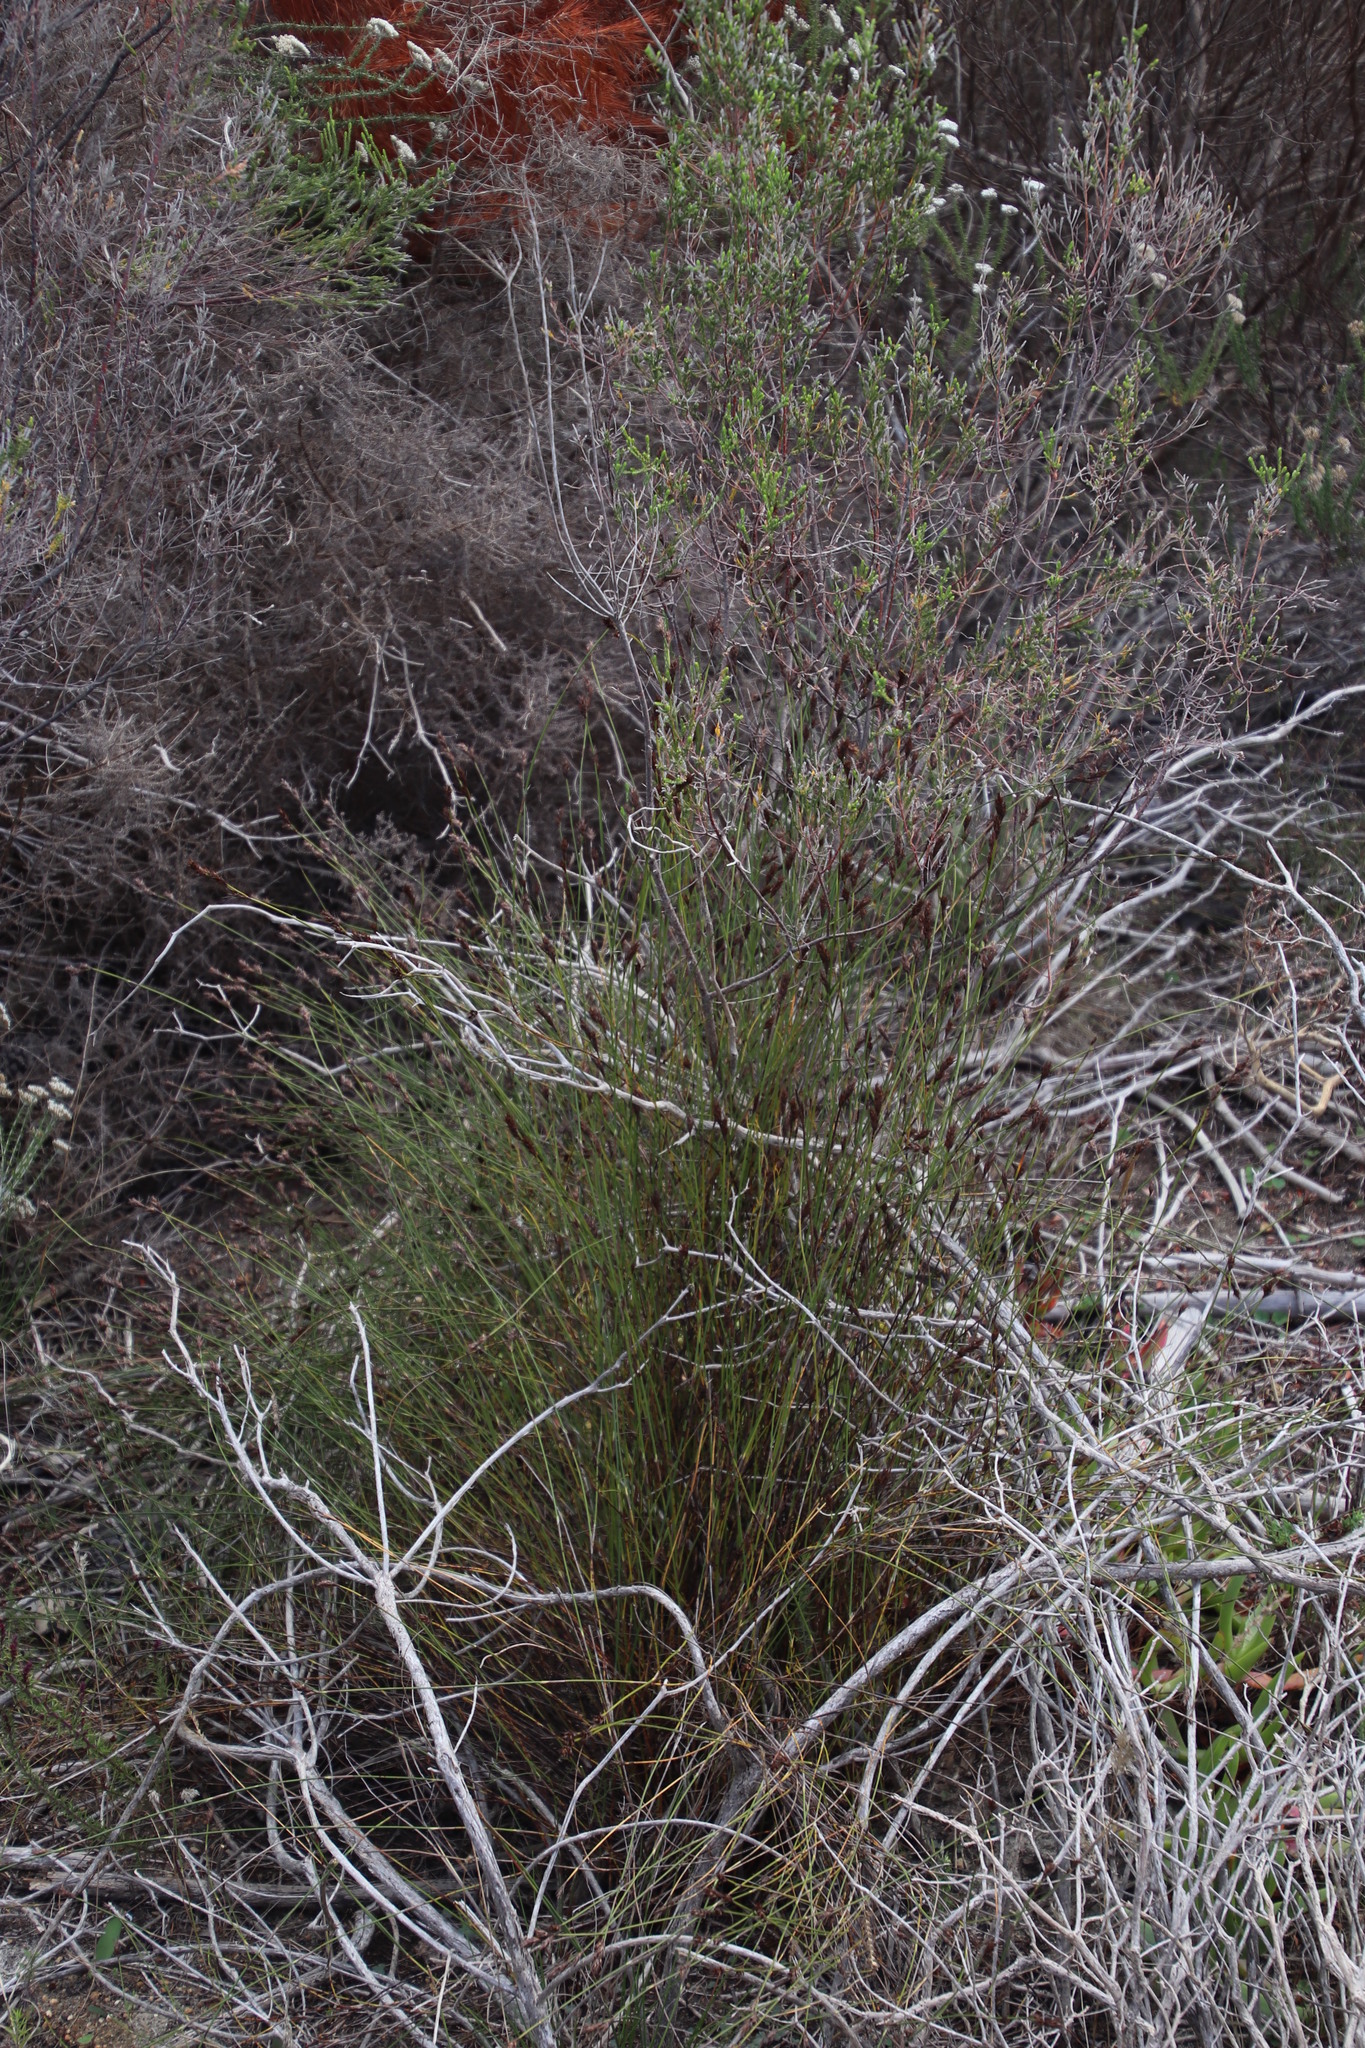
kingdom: Plantae
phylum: Tracheophyta
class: Liliopsida
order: Poales
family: Restionaceae
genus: Restio
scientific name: Restio bifurcus
